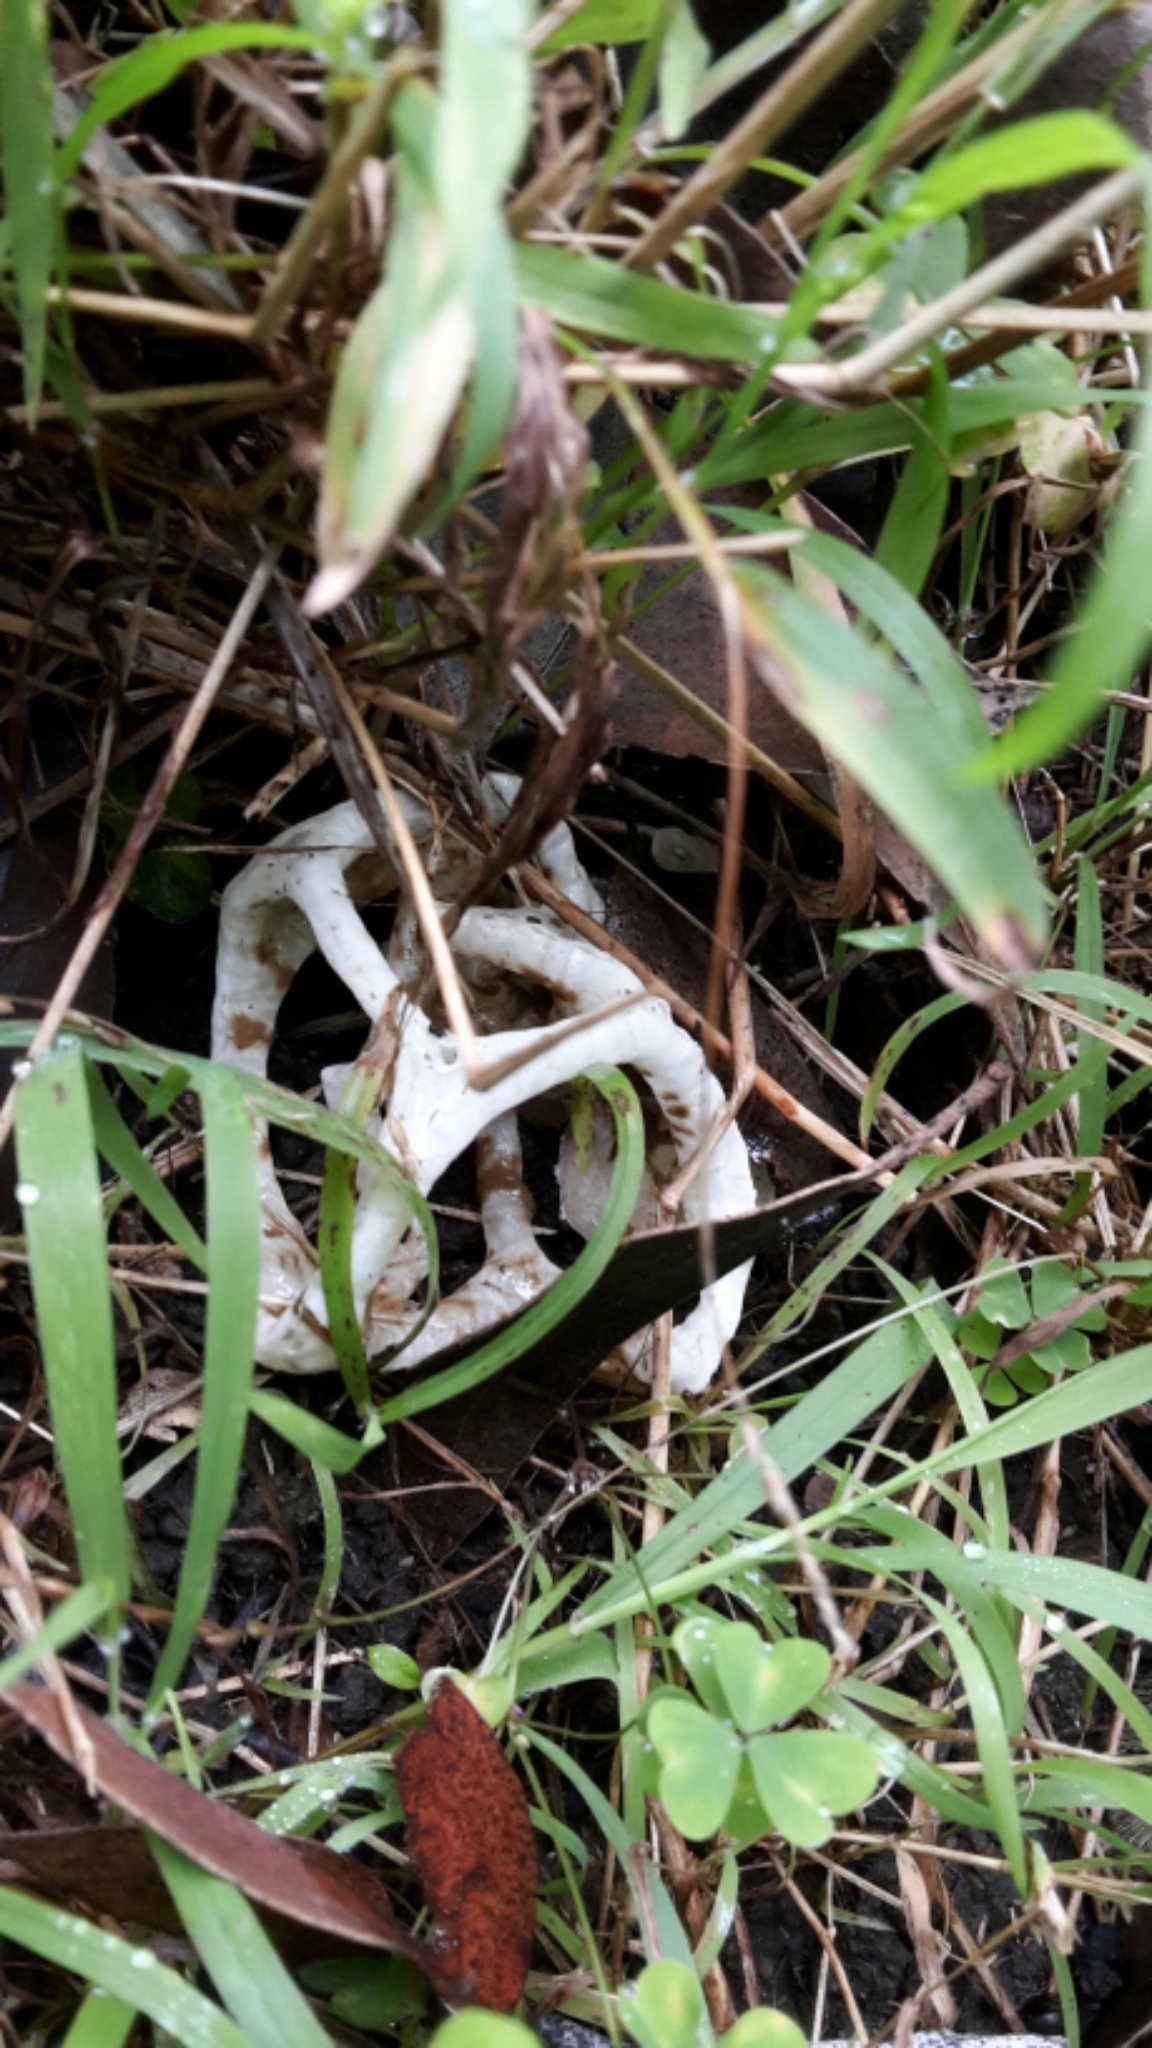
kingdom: Fungi
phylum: Basidiomycota
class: Agaricomycetes
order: Phallales
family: Phallaceae
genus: Ileodictyon
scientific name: Ileodictyon cibarium
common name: Basket fungus
